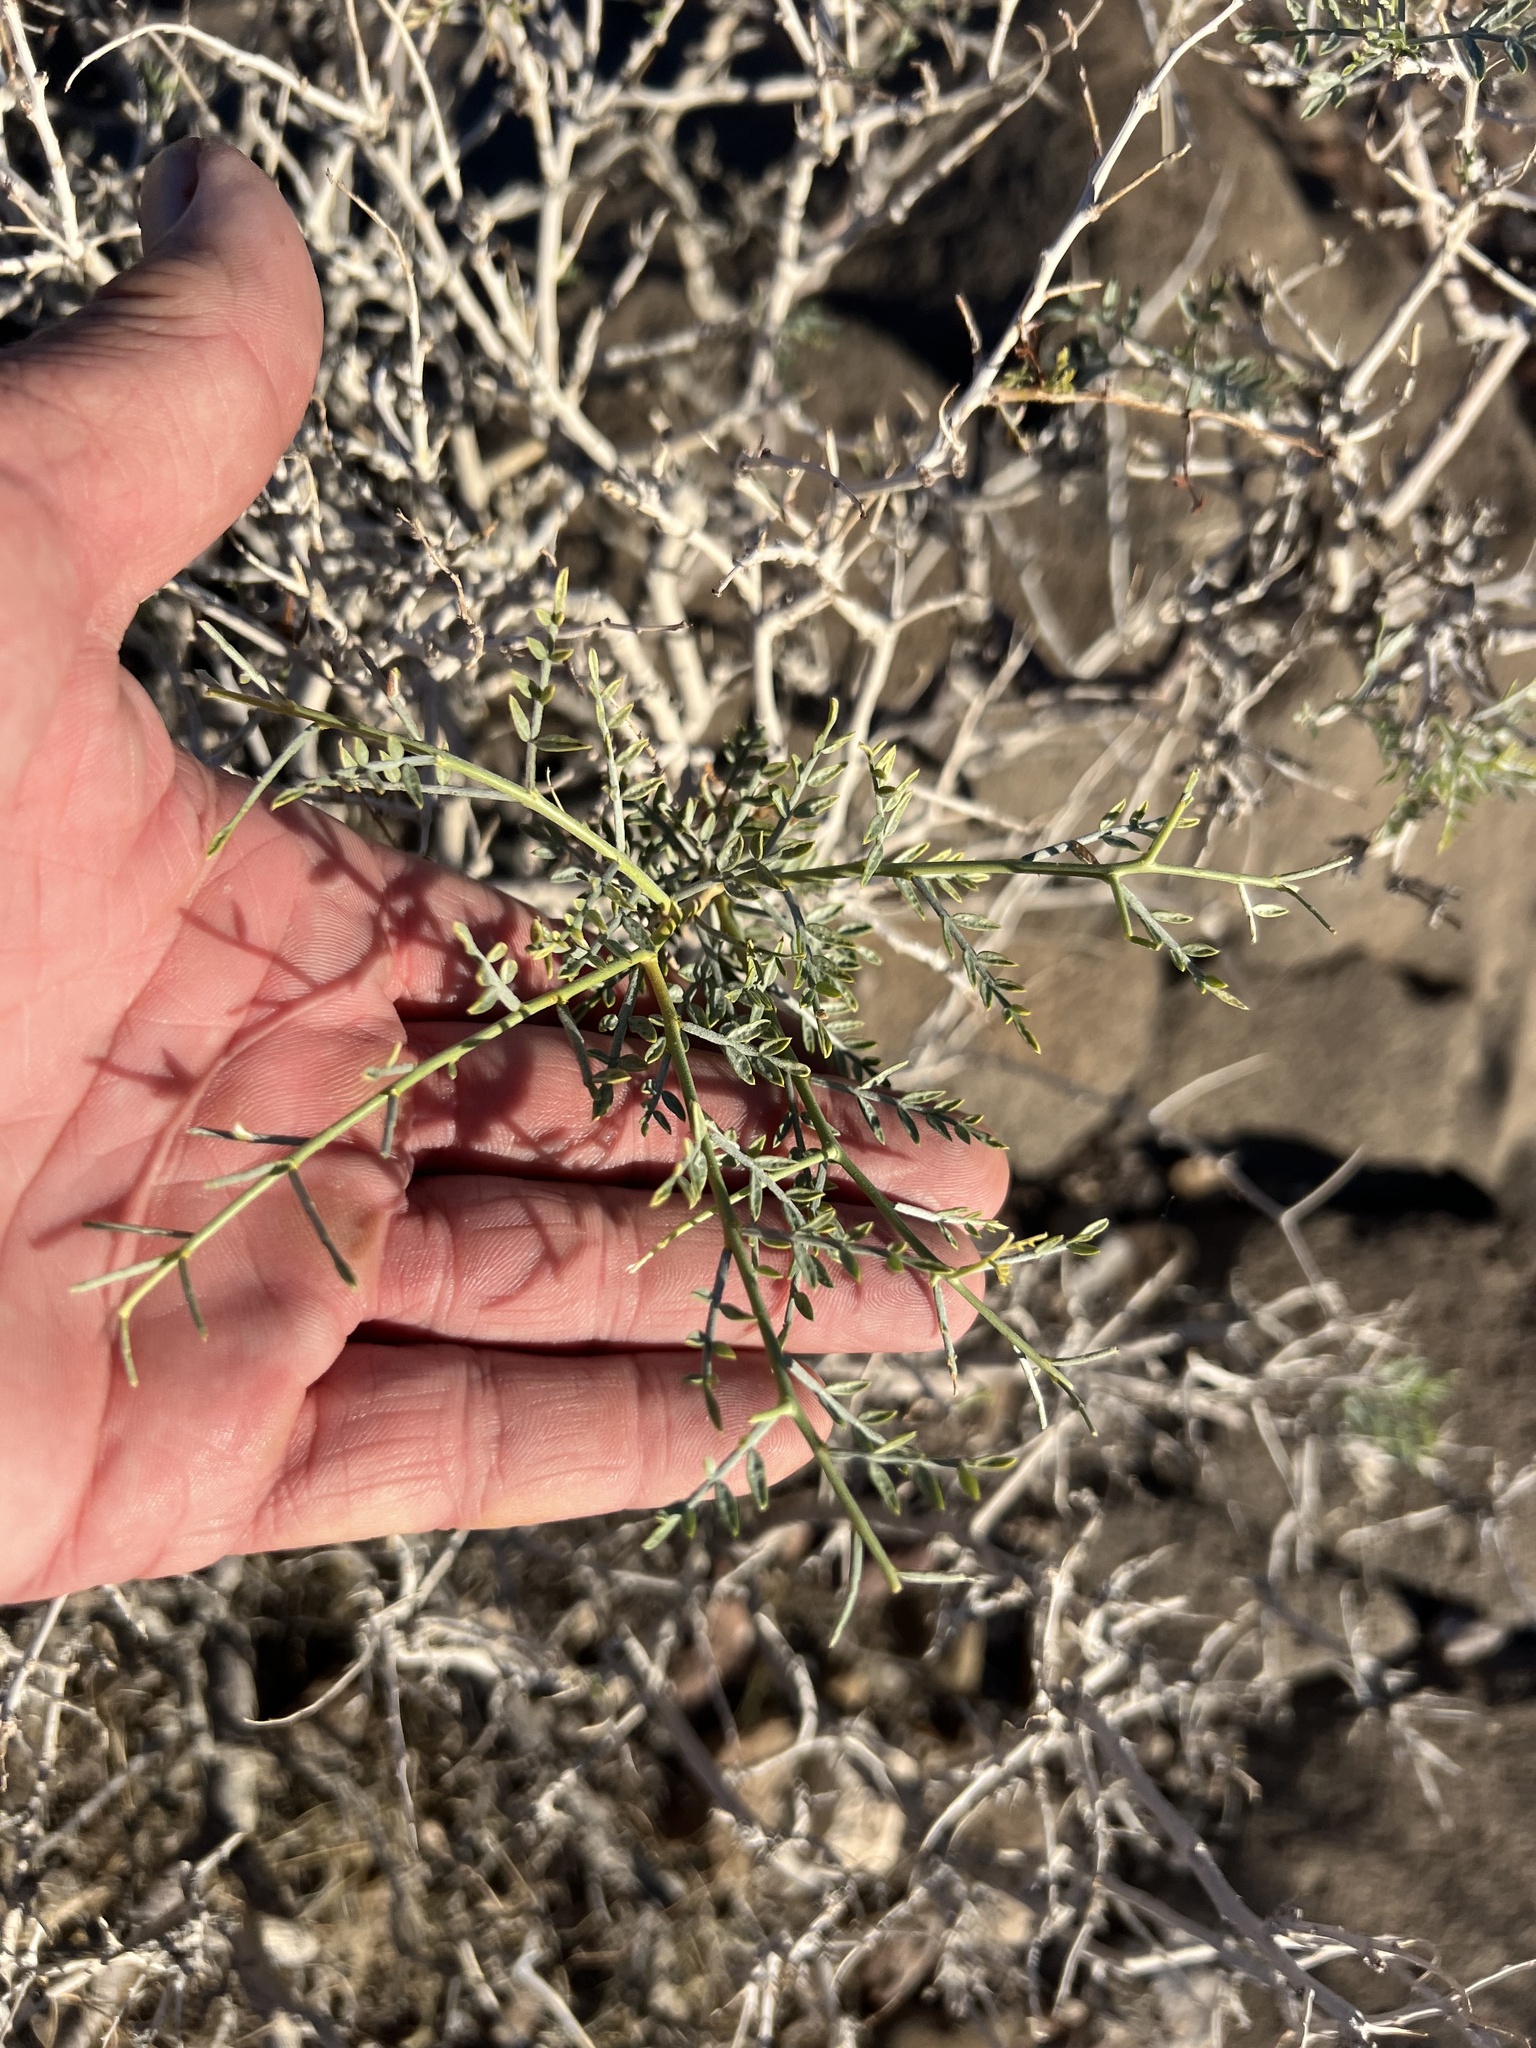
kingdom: Plantae
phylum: Tracheophyta
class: Magnoliopsida
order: Fabales
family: Fabaceae
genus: Psorothamnus
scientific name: Psorothamnus fremontii
